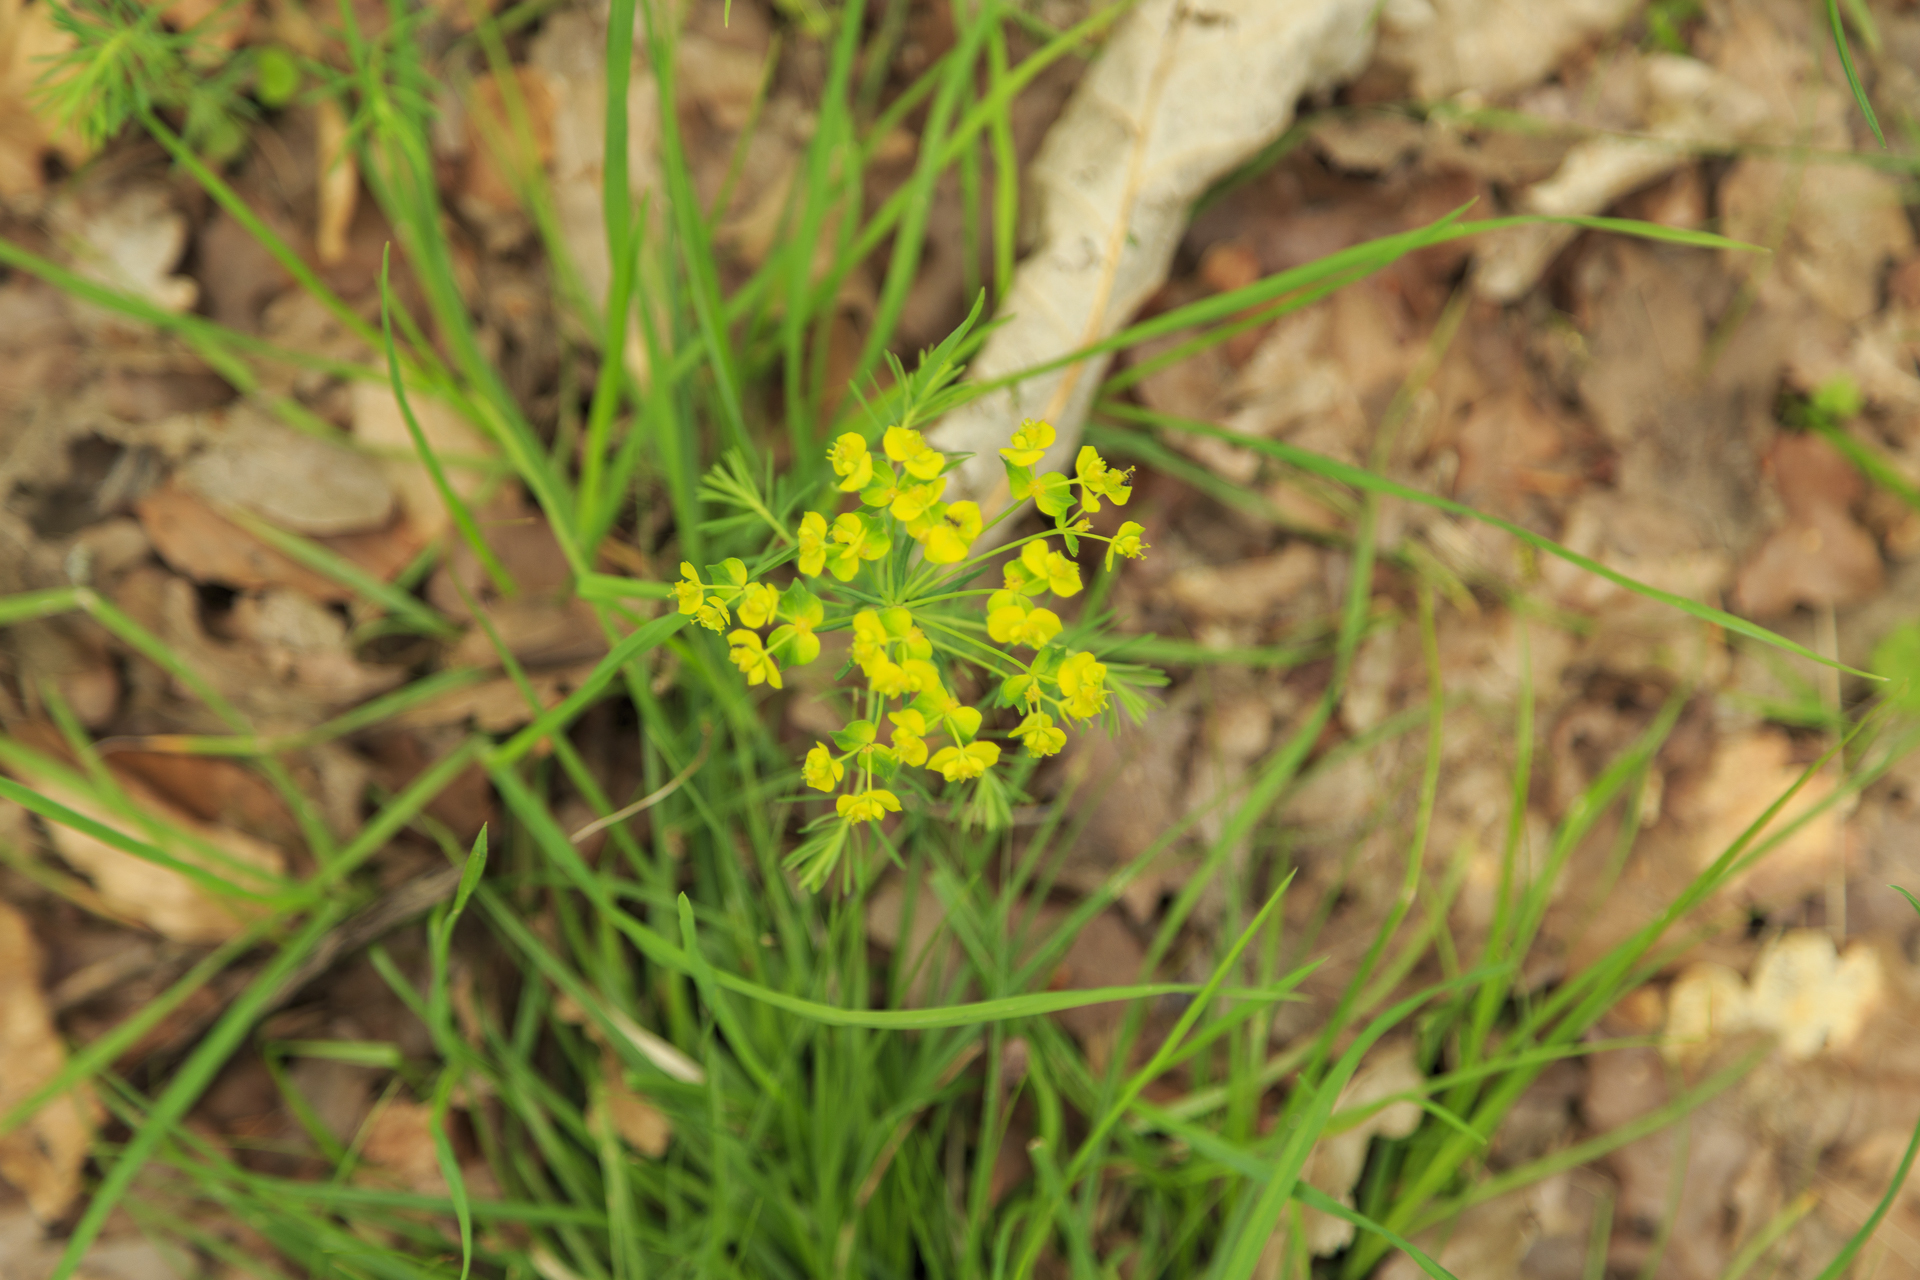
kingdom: Plantae
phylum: Tracheophyta
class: Magnoliopsida
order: Malpighiales
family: Euphorbiaceae
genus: Euphorbia
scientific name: Euphorbia cyparissias
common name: Cypress spurge
